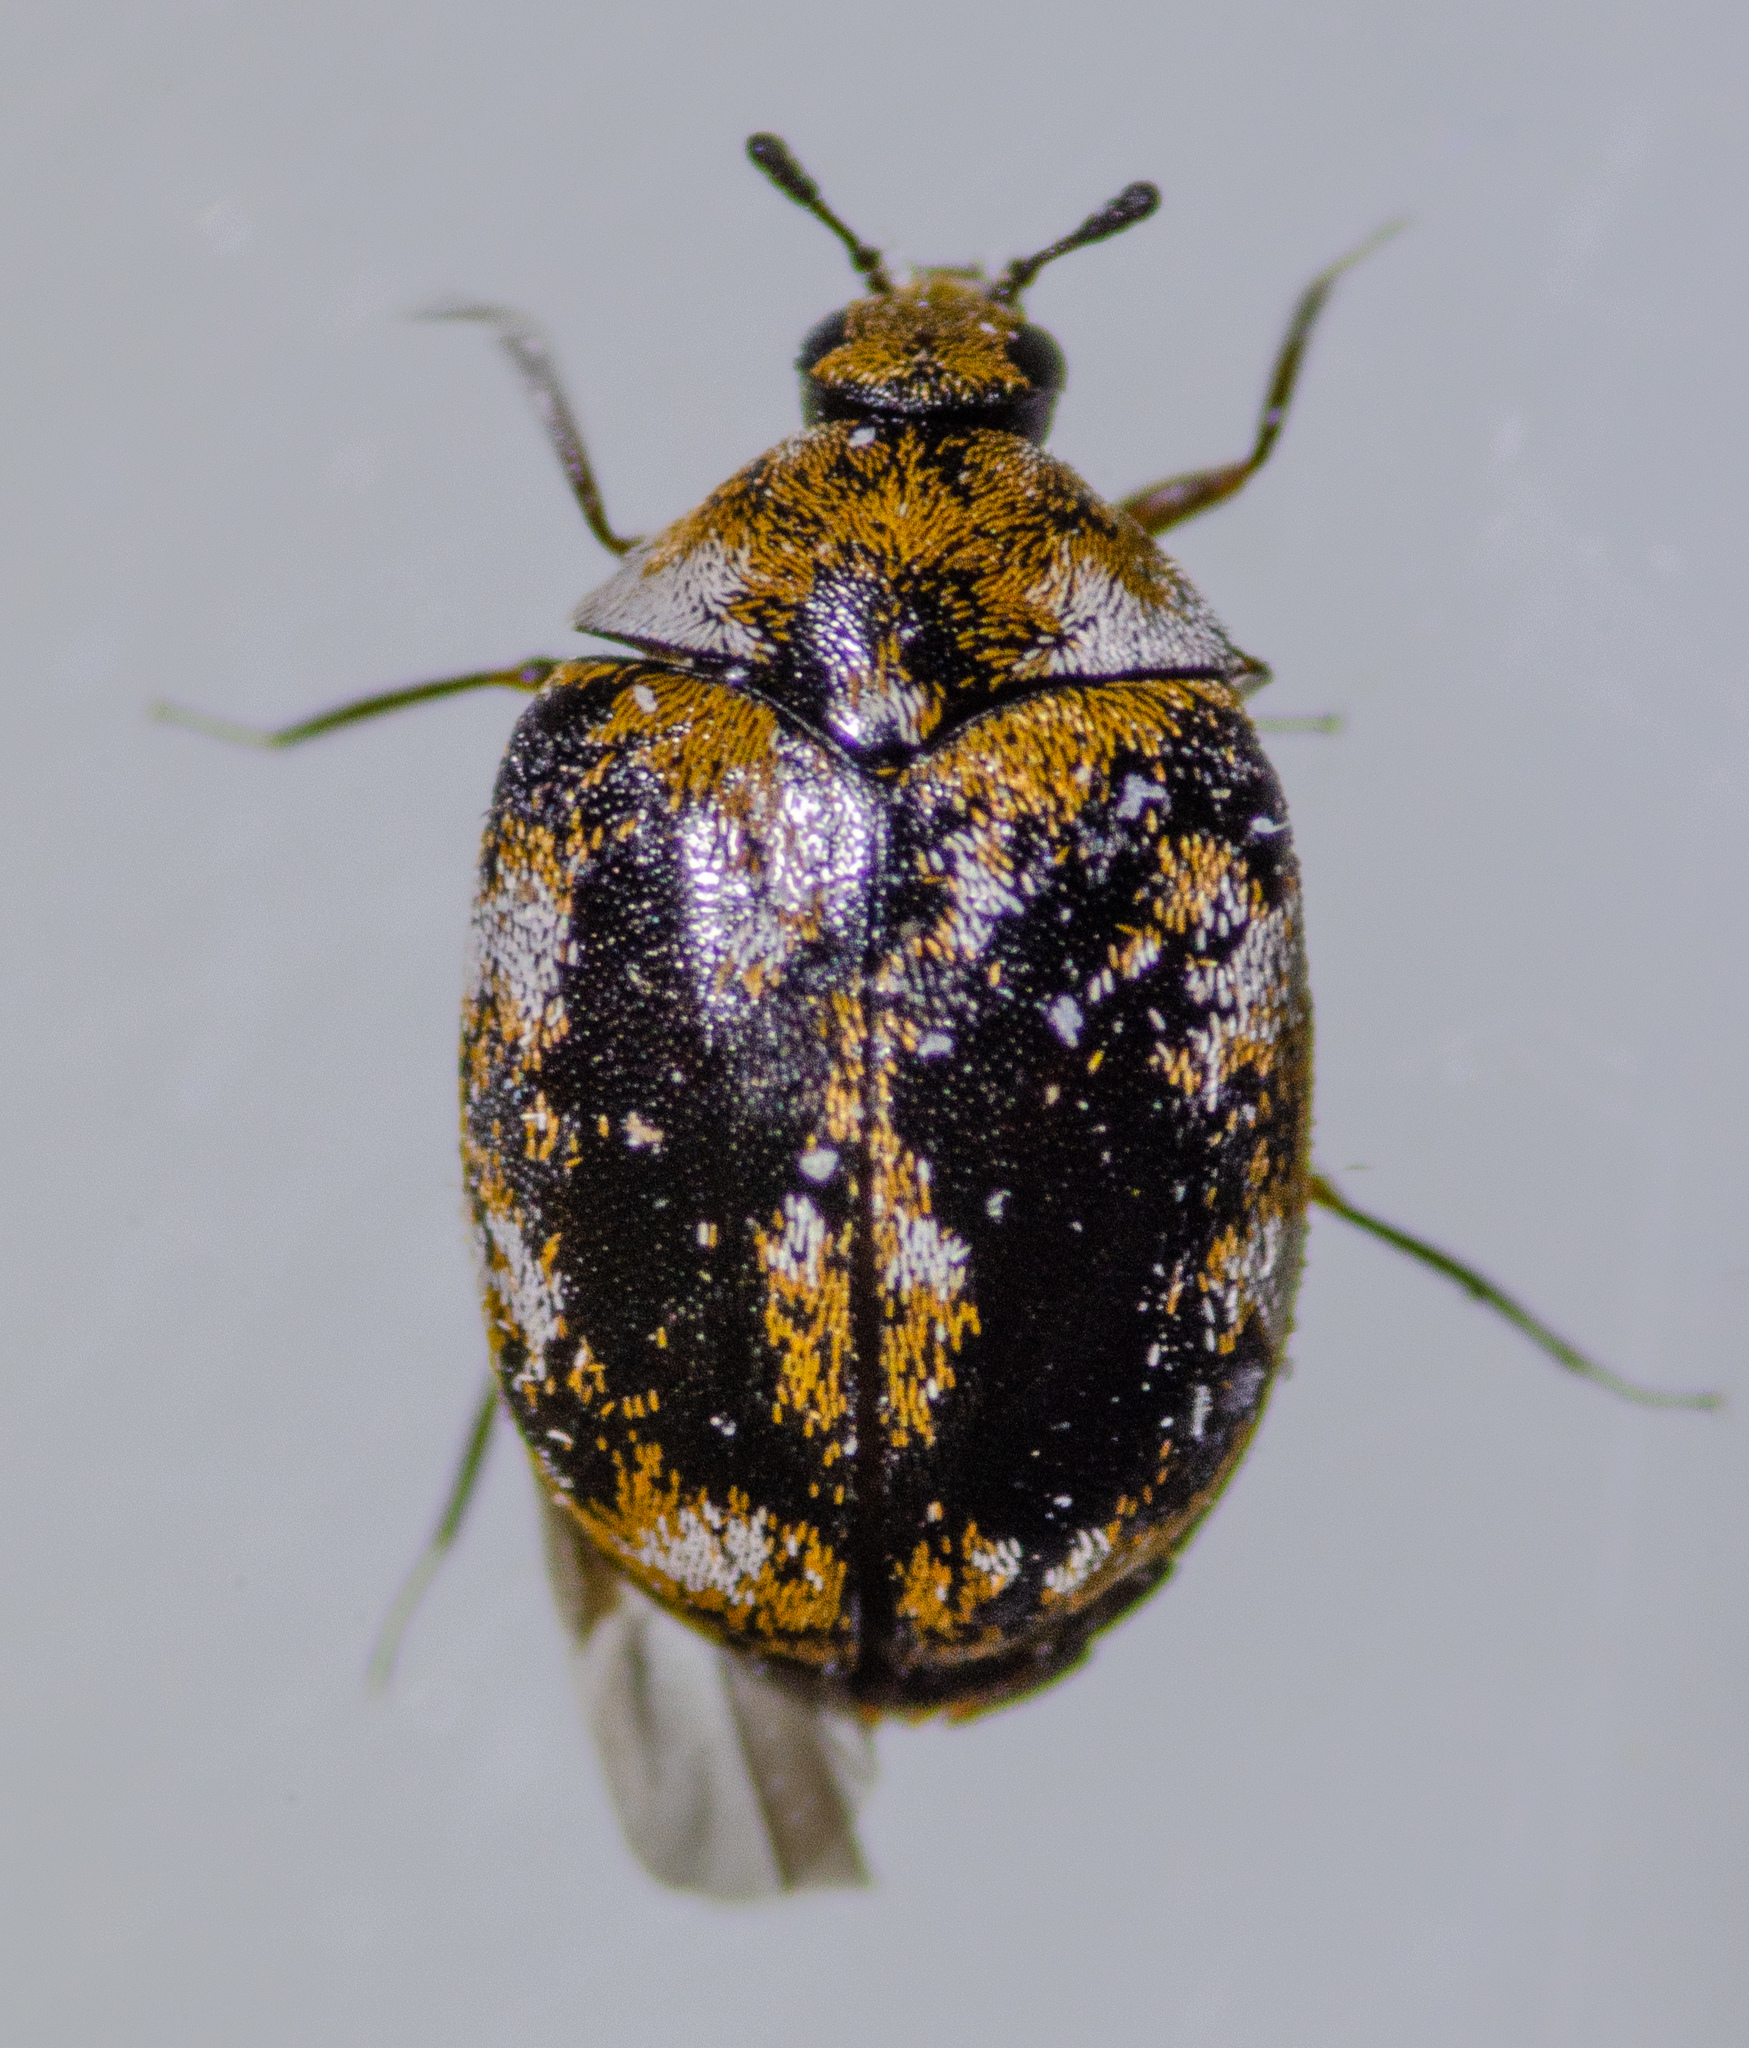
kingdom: Animalia
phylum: Arthropoda
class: Insecta
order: Coleoptera
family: Dermestidae
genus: Anthrenus
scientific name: Anthrenus verbasci
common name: Varied carpet beetle
